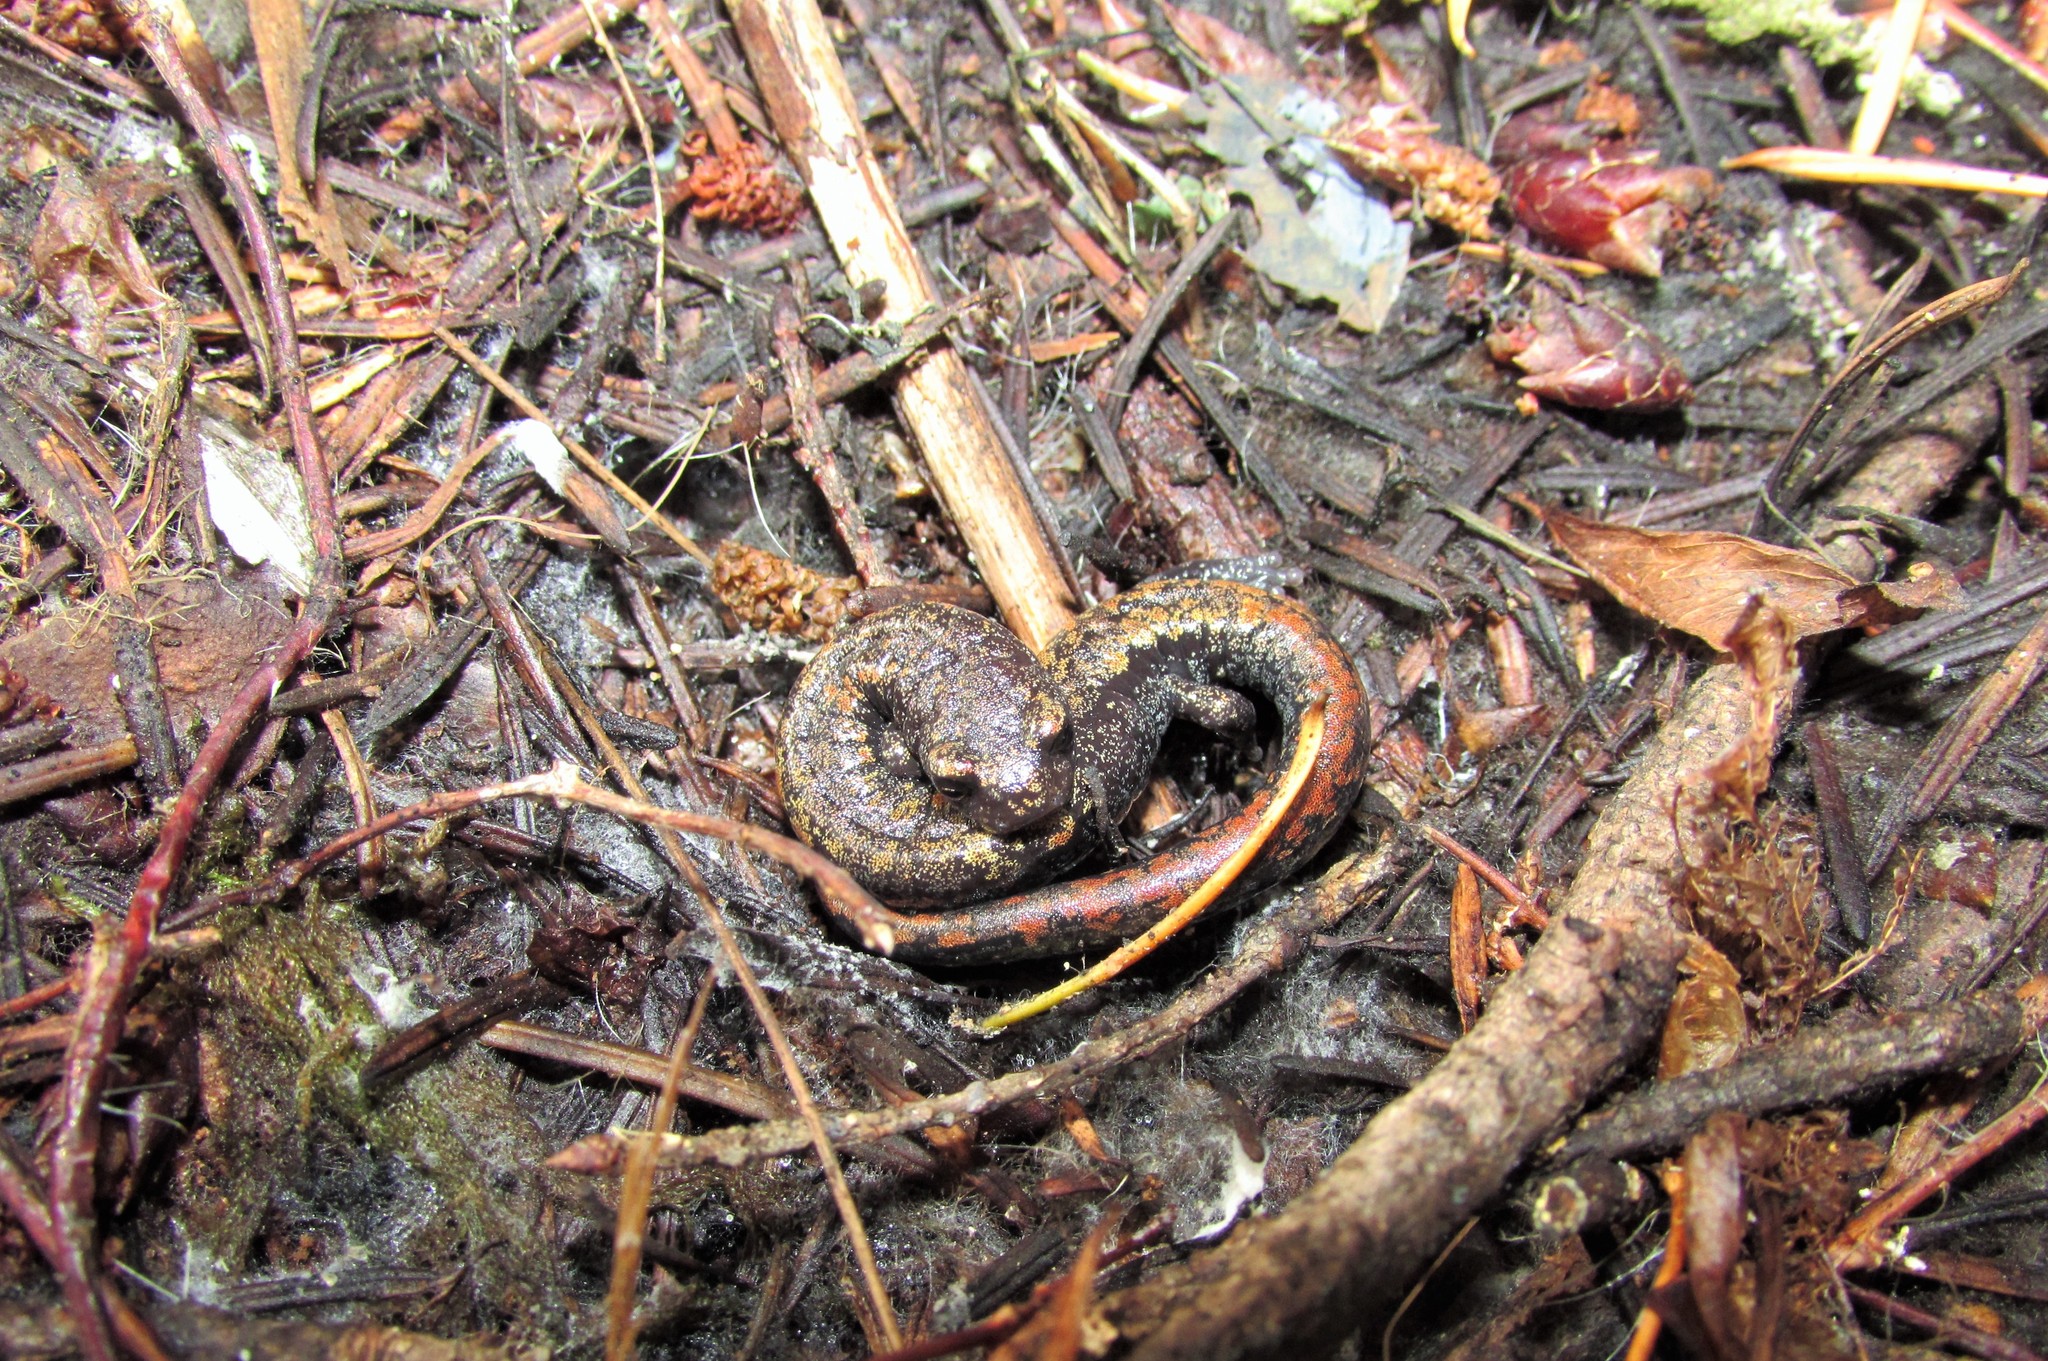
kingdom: Animalia
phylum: Chordata
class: Amphibia
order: Caudata
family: Plethodontidae
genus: Batrachoseps
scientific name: Batrachoseps wrighti
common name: Oregon slender salamander
